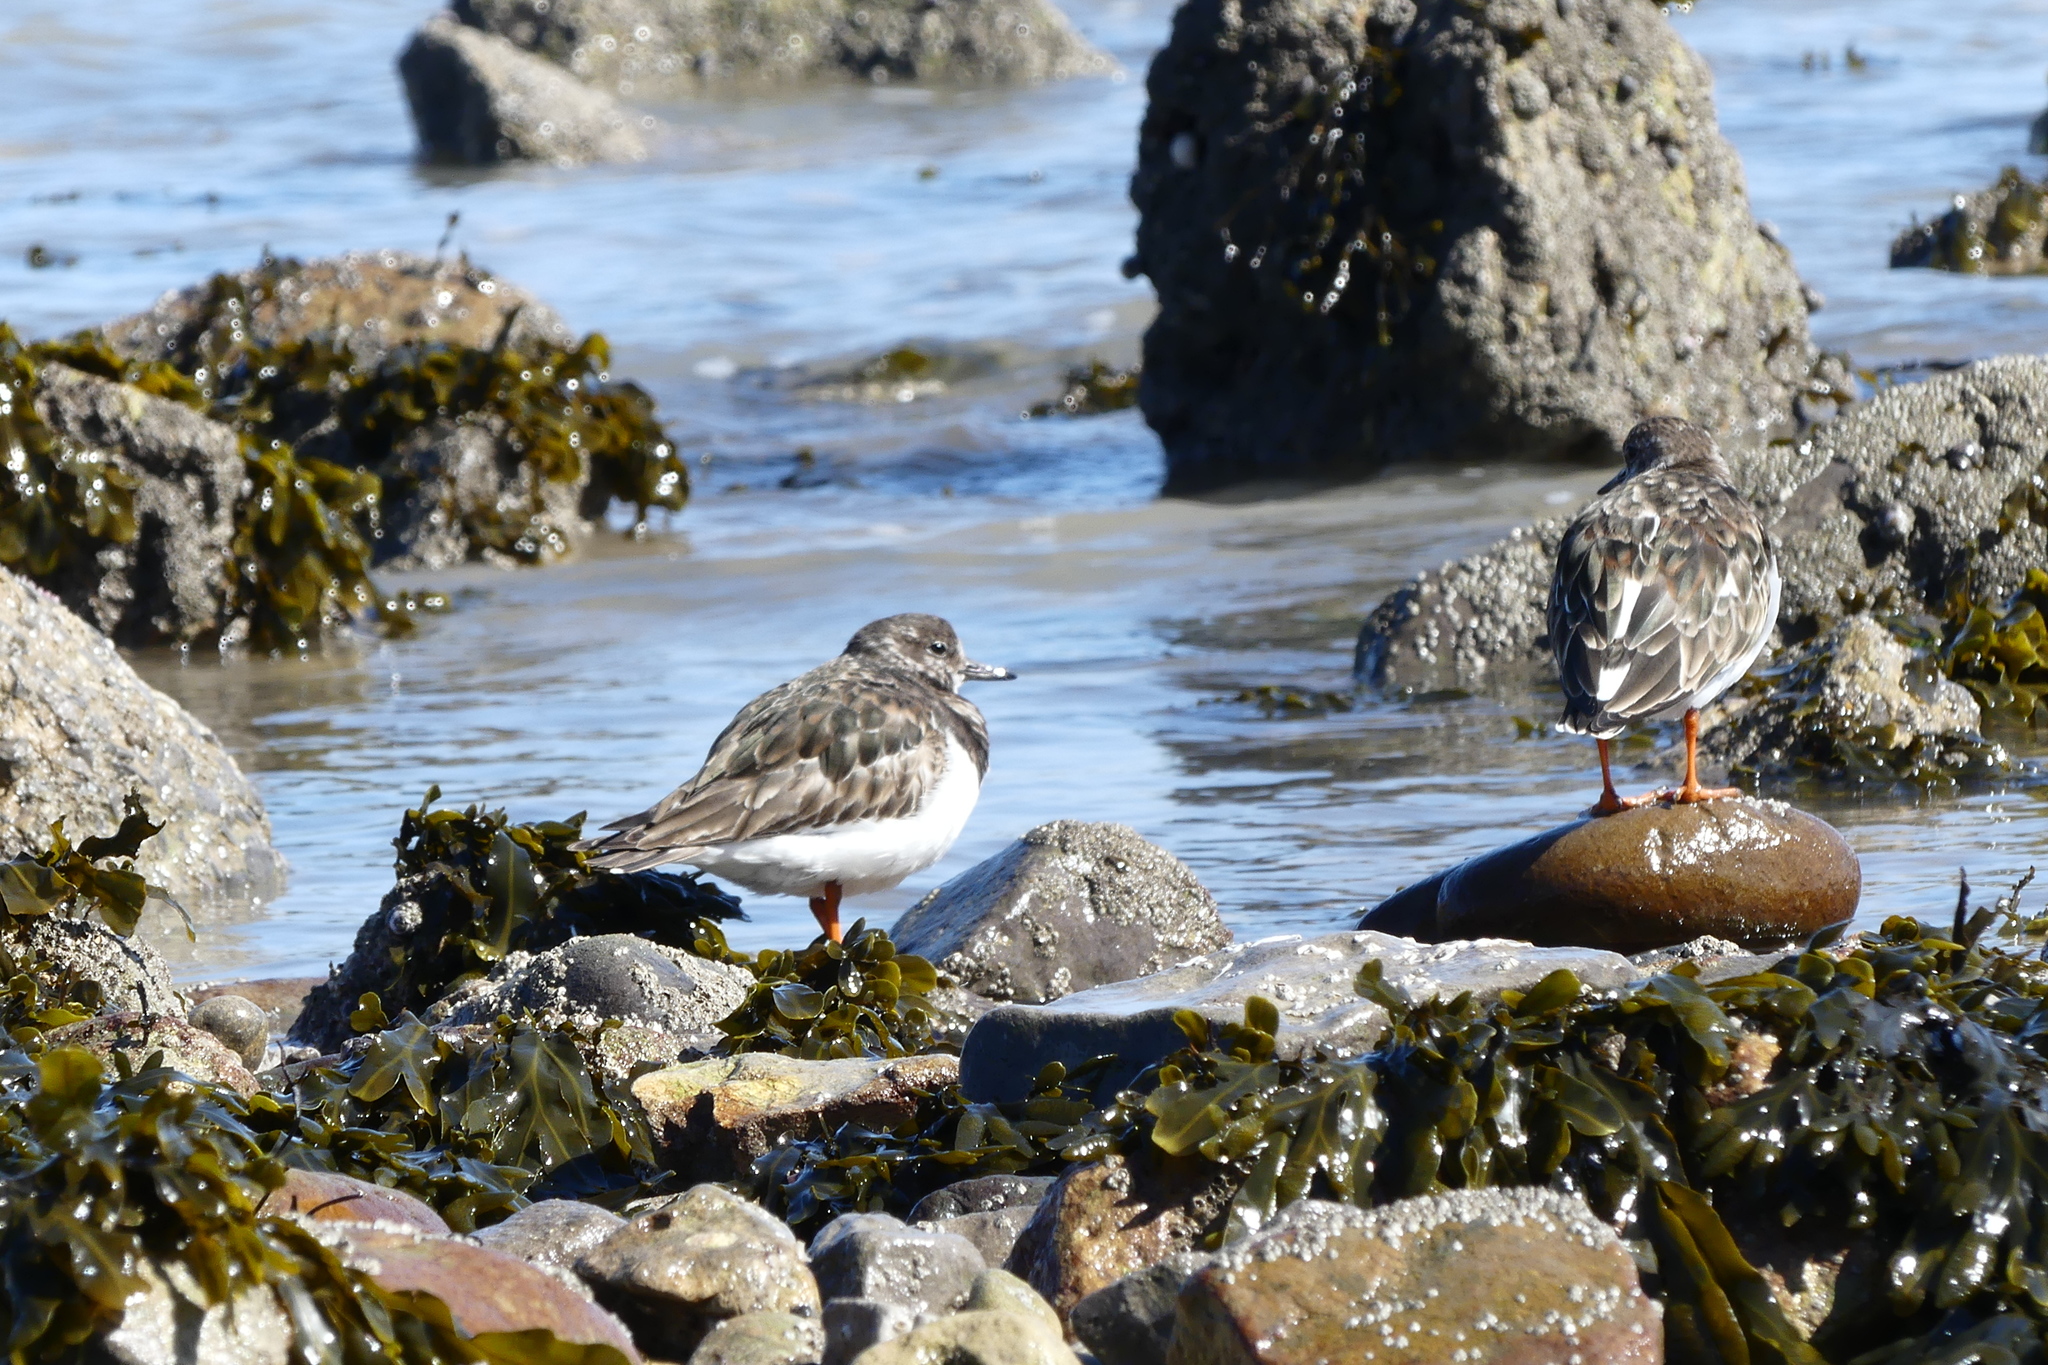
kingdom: Animalia
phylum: Chordata
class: Aves
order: Charadriiformes
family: Scolopacidae
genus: Arenaria
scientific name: Arenaria interpres
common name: Ruddy turnstone
